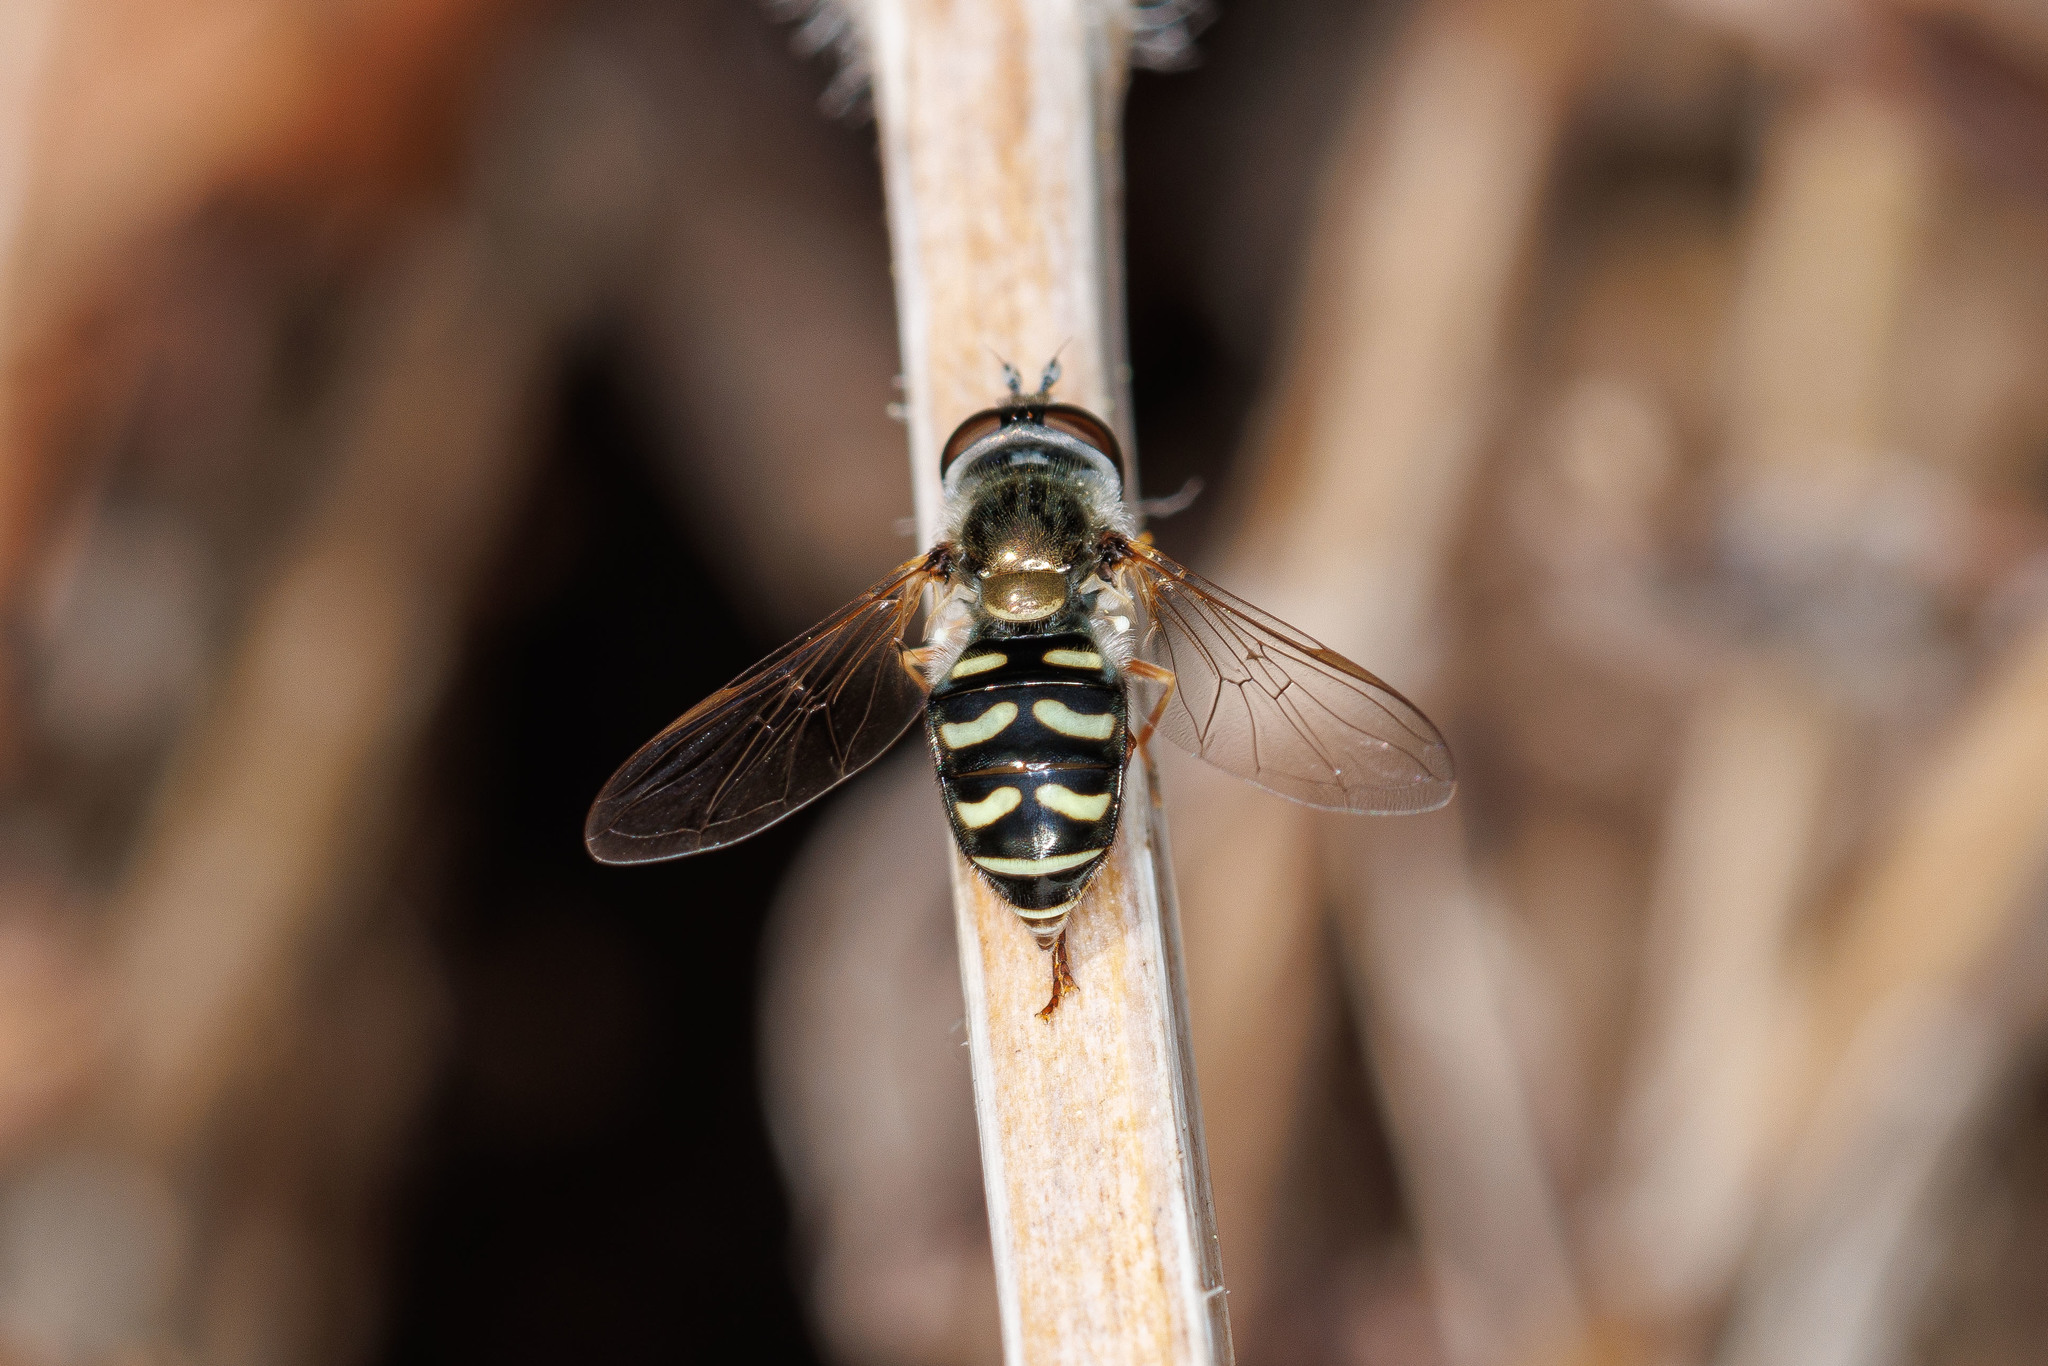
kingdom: Animalia
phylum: Arthropoda
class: Insecta
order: Diptera
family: Syrphidae
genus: Eupeodes
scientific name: Eupeodes volucris
